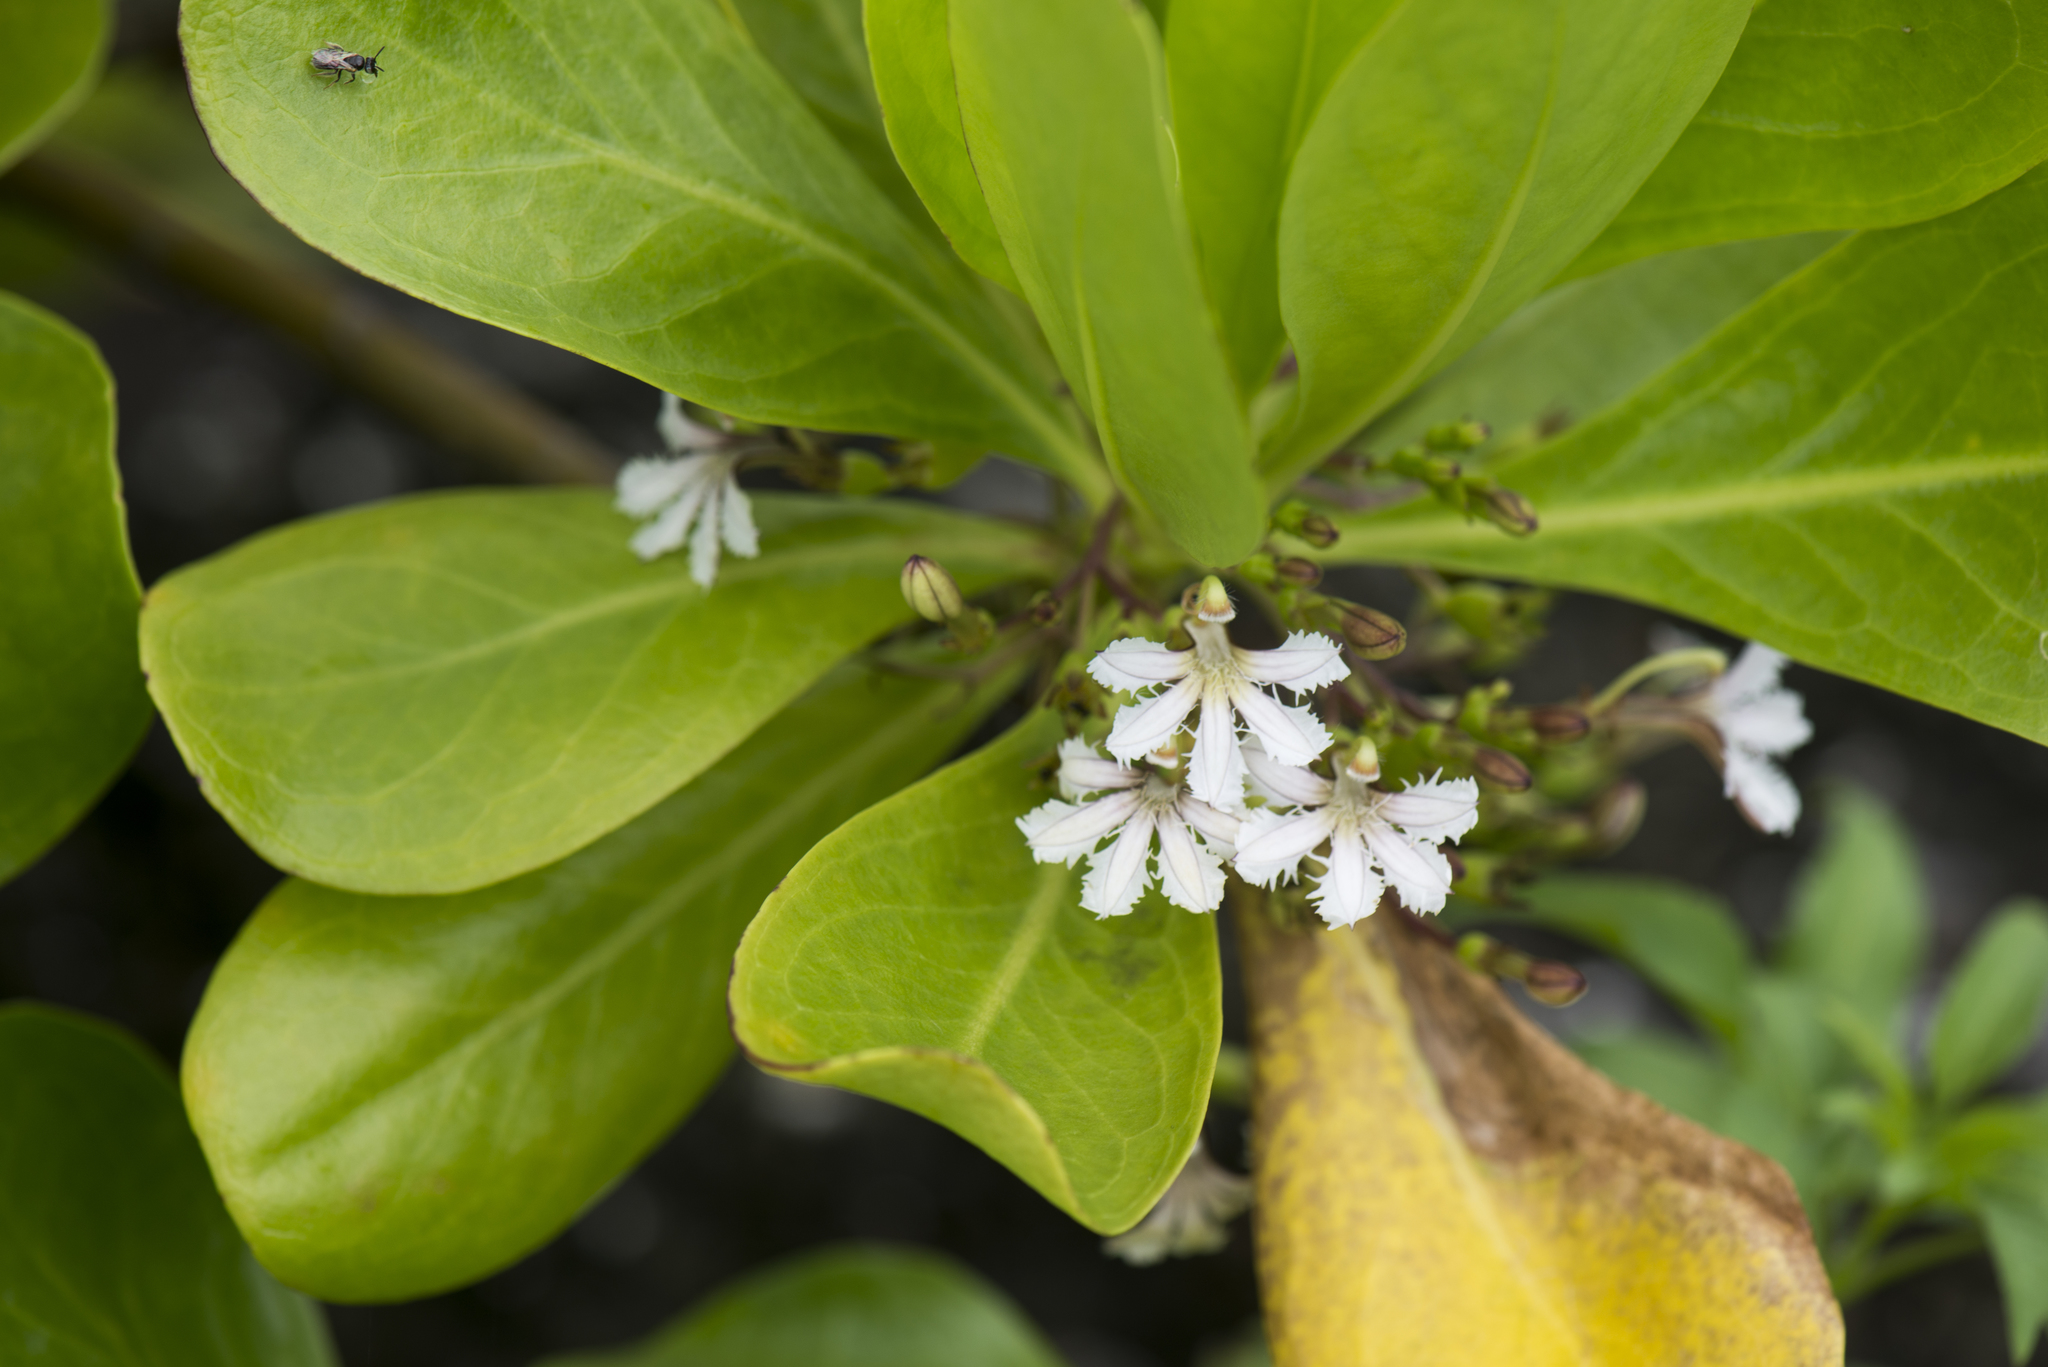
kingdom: Plantae
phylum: Tracheophyta
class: Magnoliopsida
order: Asterales
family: Goodeniaceae
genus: Scaevola
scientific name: Scaevola taccada
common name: Sea lettucetree
